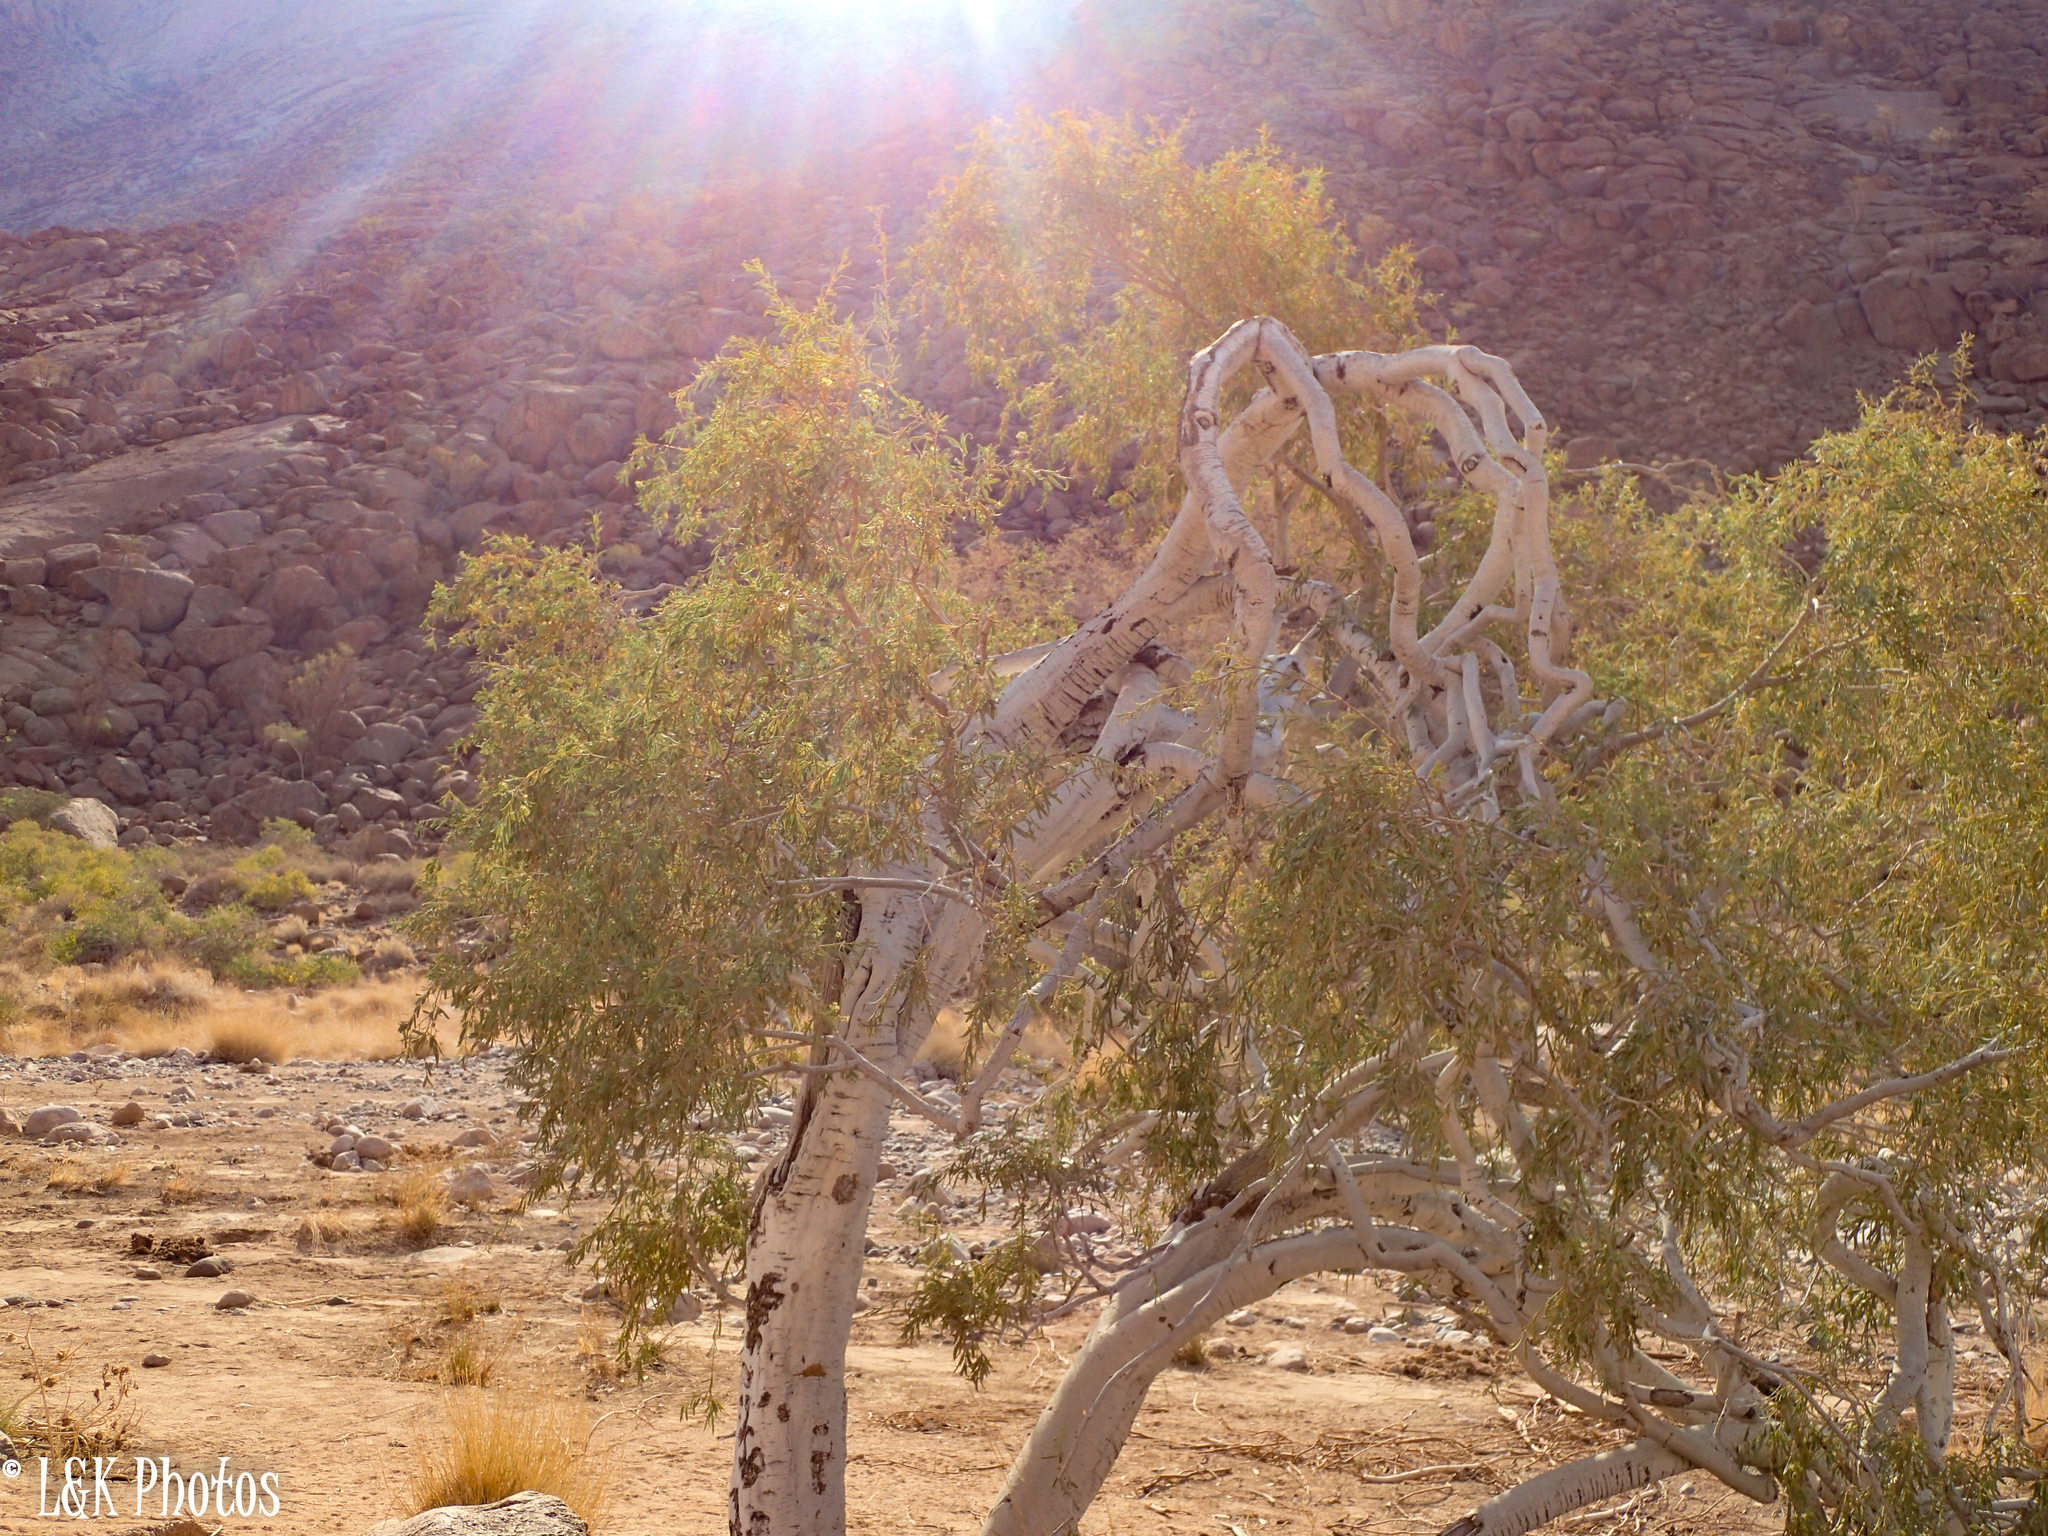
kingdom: Plantae
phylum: Tracheophyta
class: Magnoliopsida
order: Brassicales
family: Capparaceae
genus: Boscia
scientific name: Boscia albitrunca
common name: Caper bush
